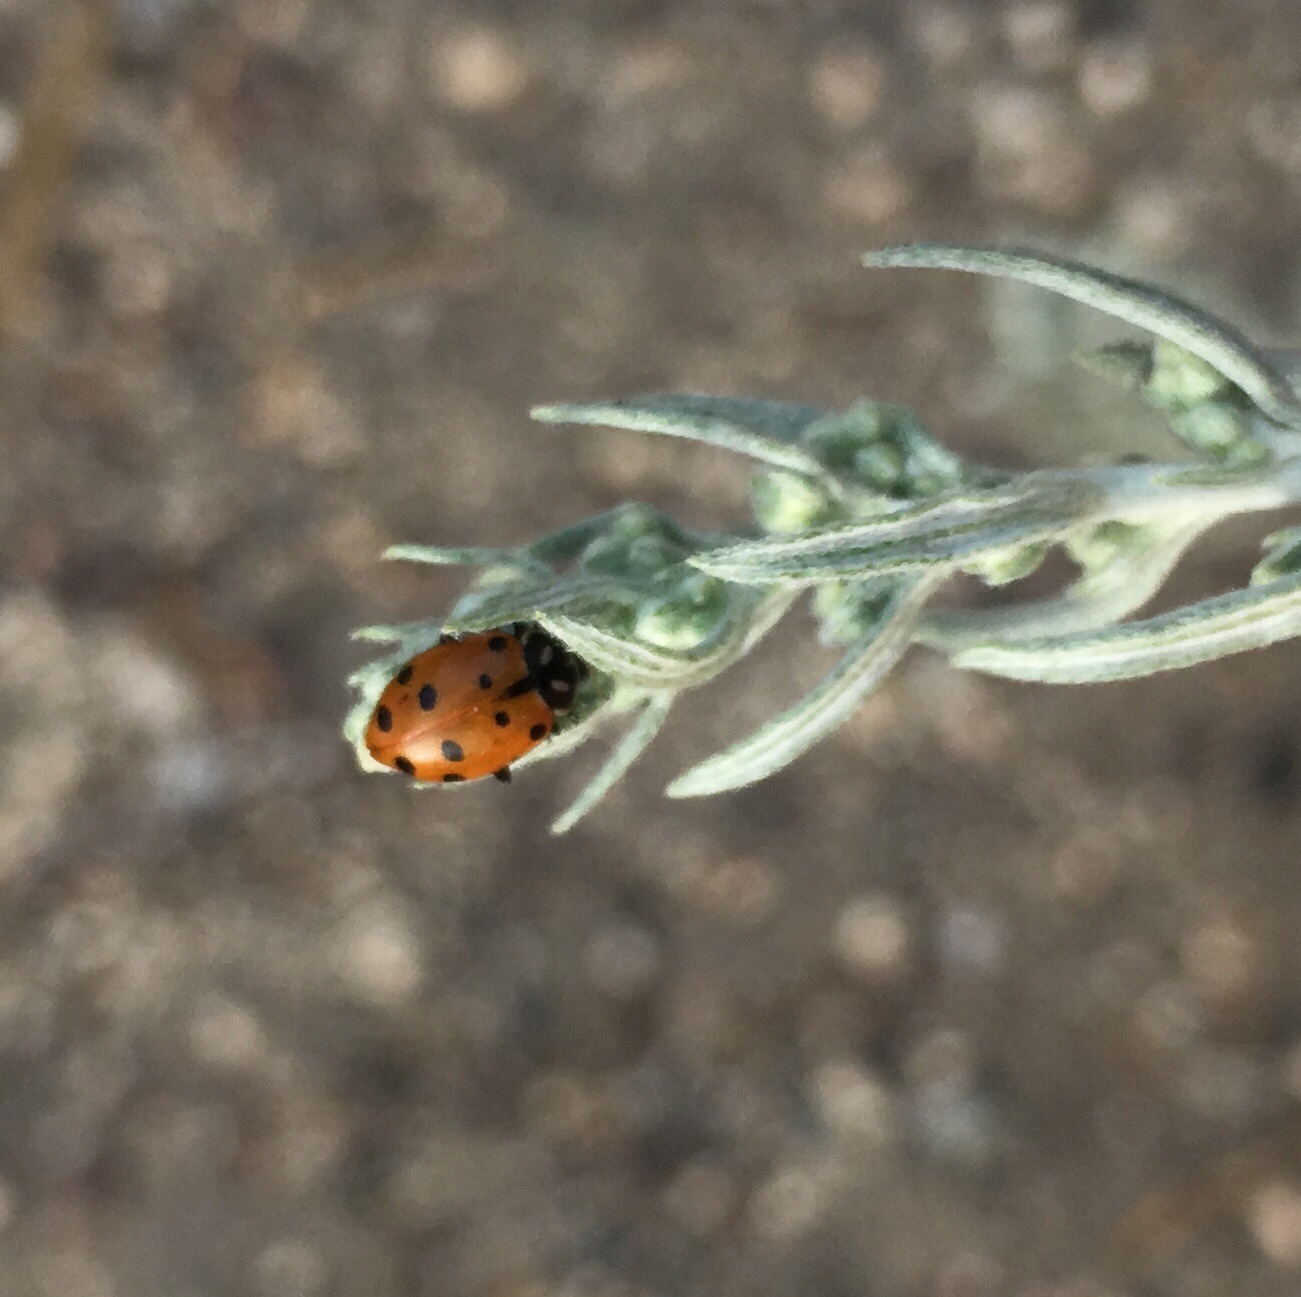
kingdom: Animalia
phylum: Arthropoda
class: Insecta
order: Coleoptera
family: Coccinellidae
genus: Hippodamia
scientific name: Hippodamia convergens
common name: Convergent lady beetle
